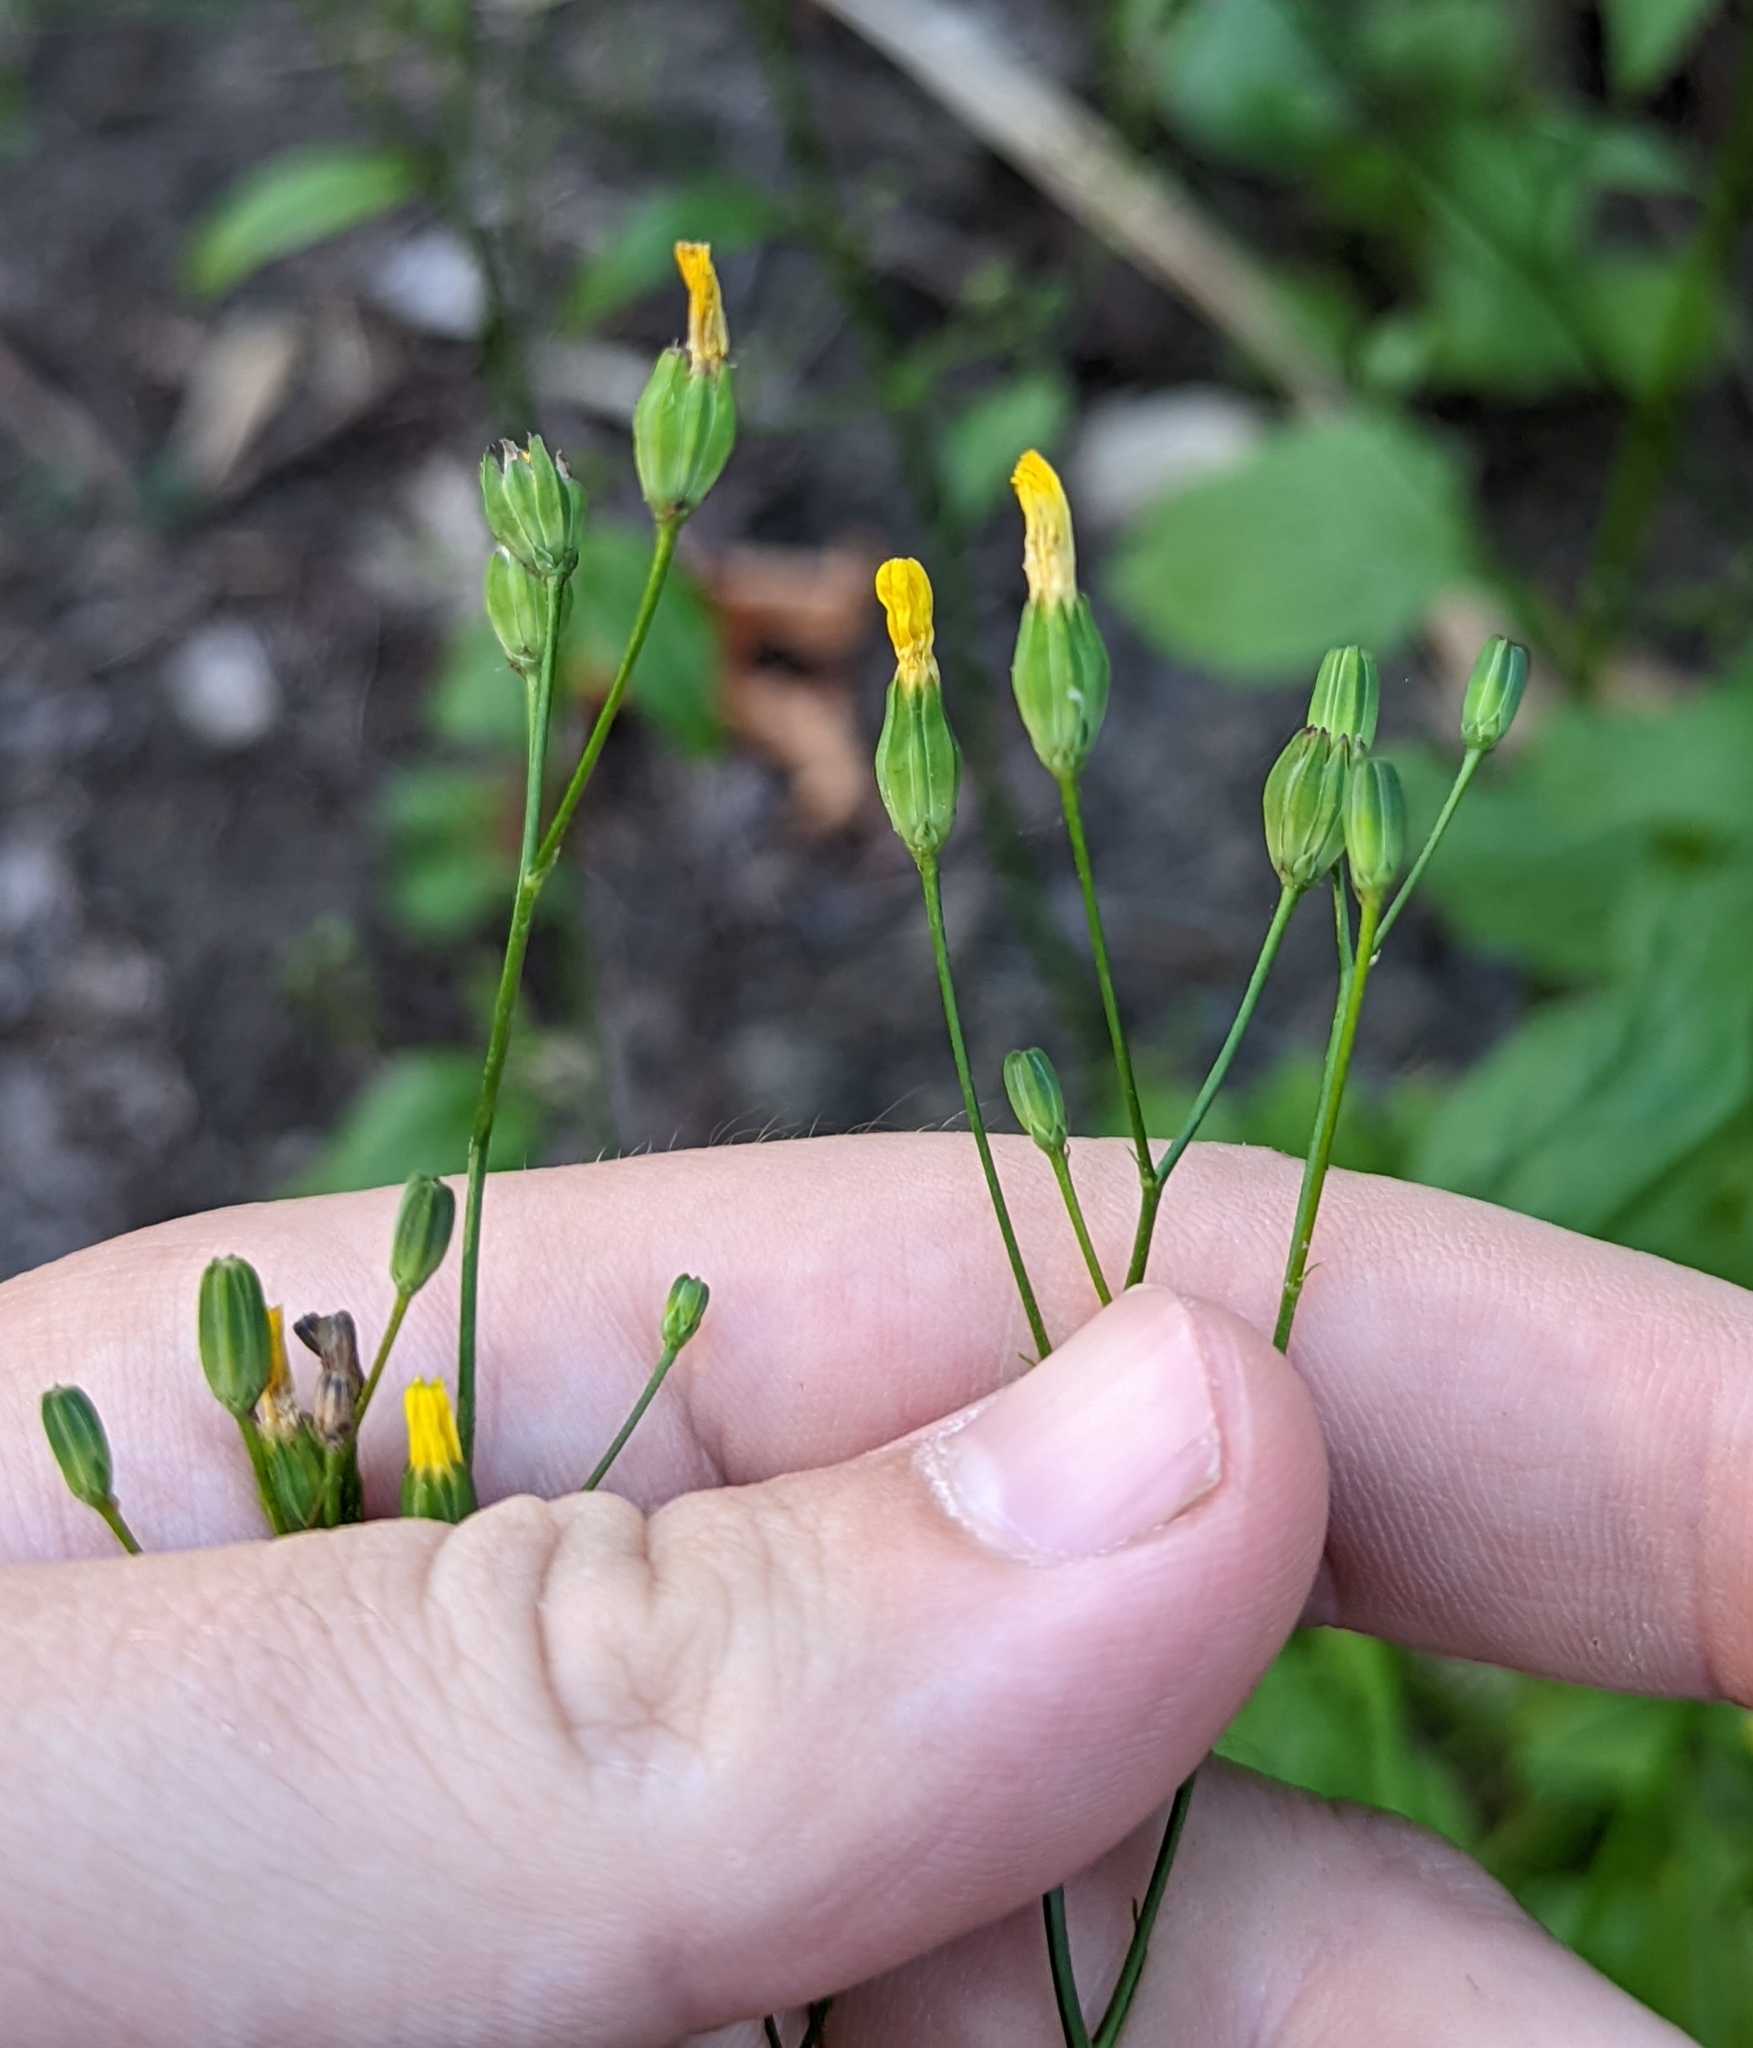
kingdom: Plantae
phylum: Tracheophyta
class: Magnoliopsida
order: Asterales
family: Asteraceae
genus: Lapsana
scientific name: Lapsana communis
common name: Nipplewort
